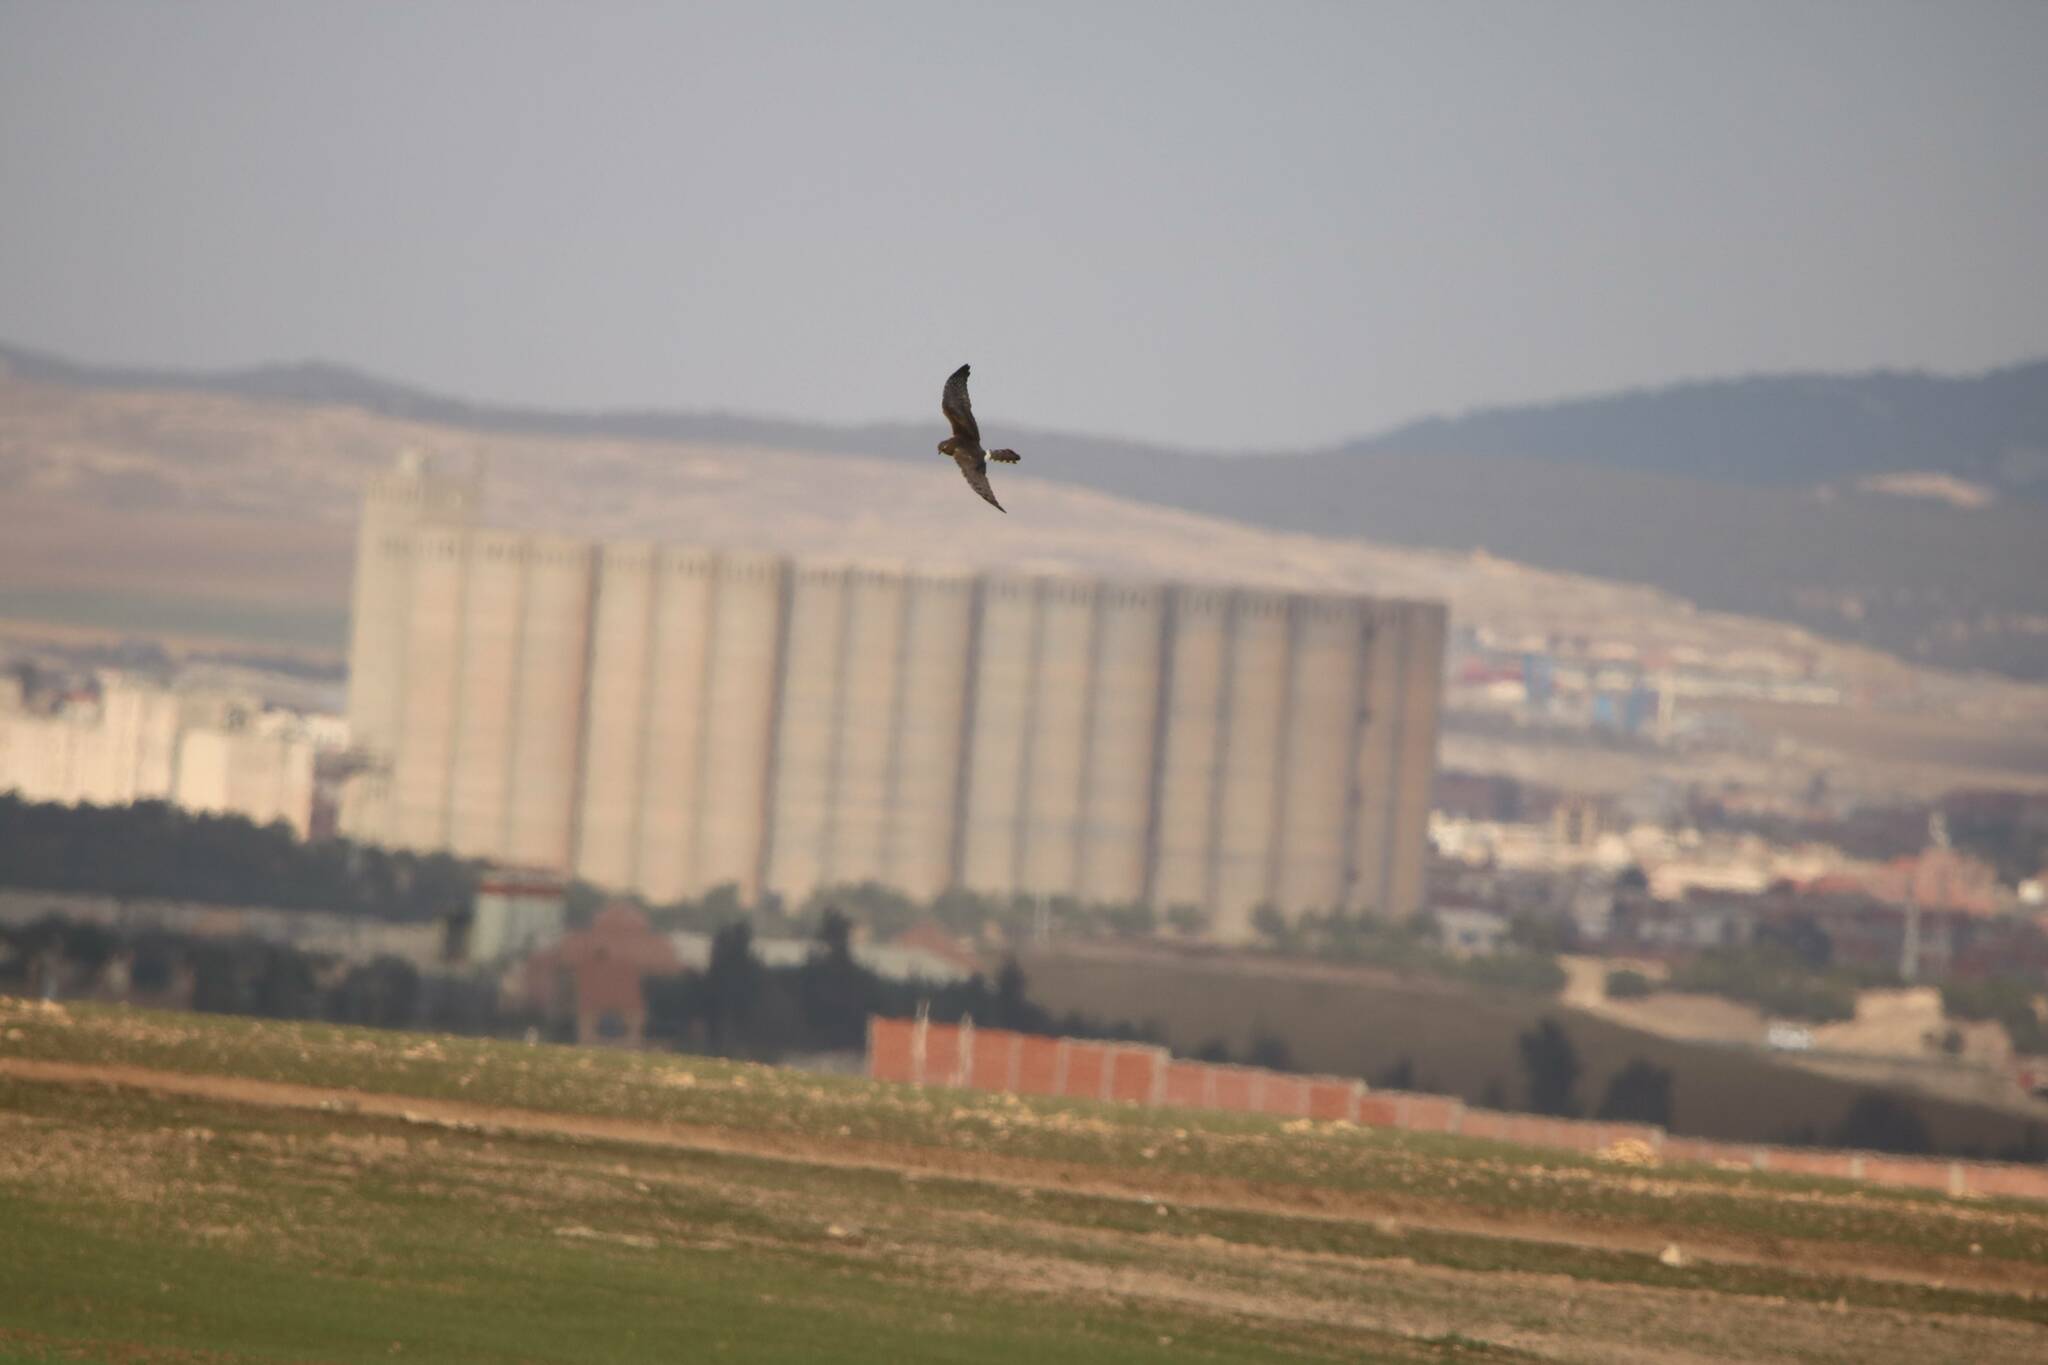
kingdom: Animalia
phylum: Chordata
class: Aves
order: Accipitriformes
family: Accipitridae
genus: Circus
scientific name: Circus pygargus
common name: Montagu's harrier
